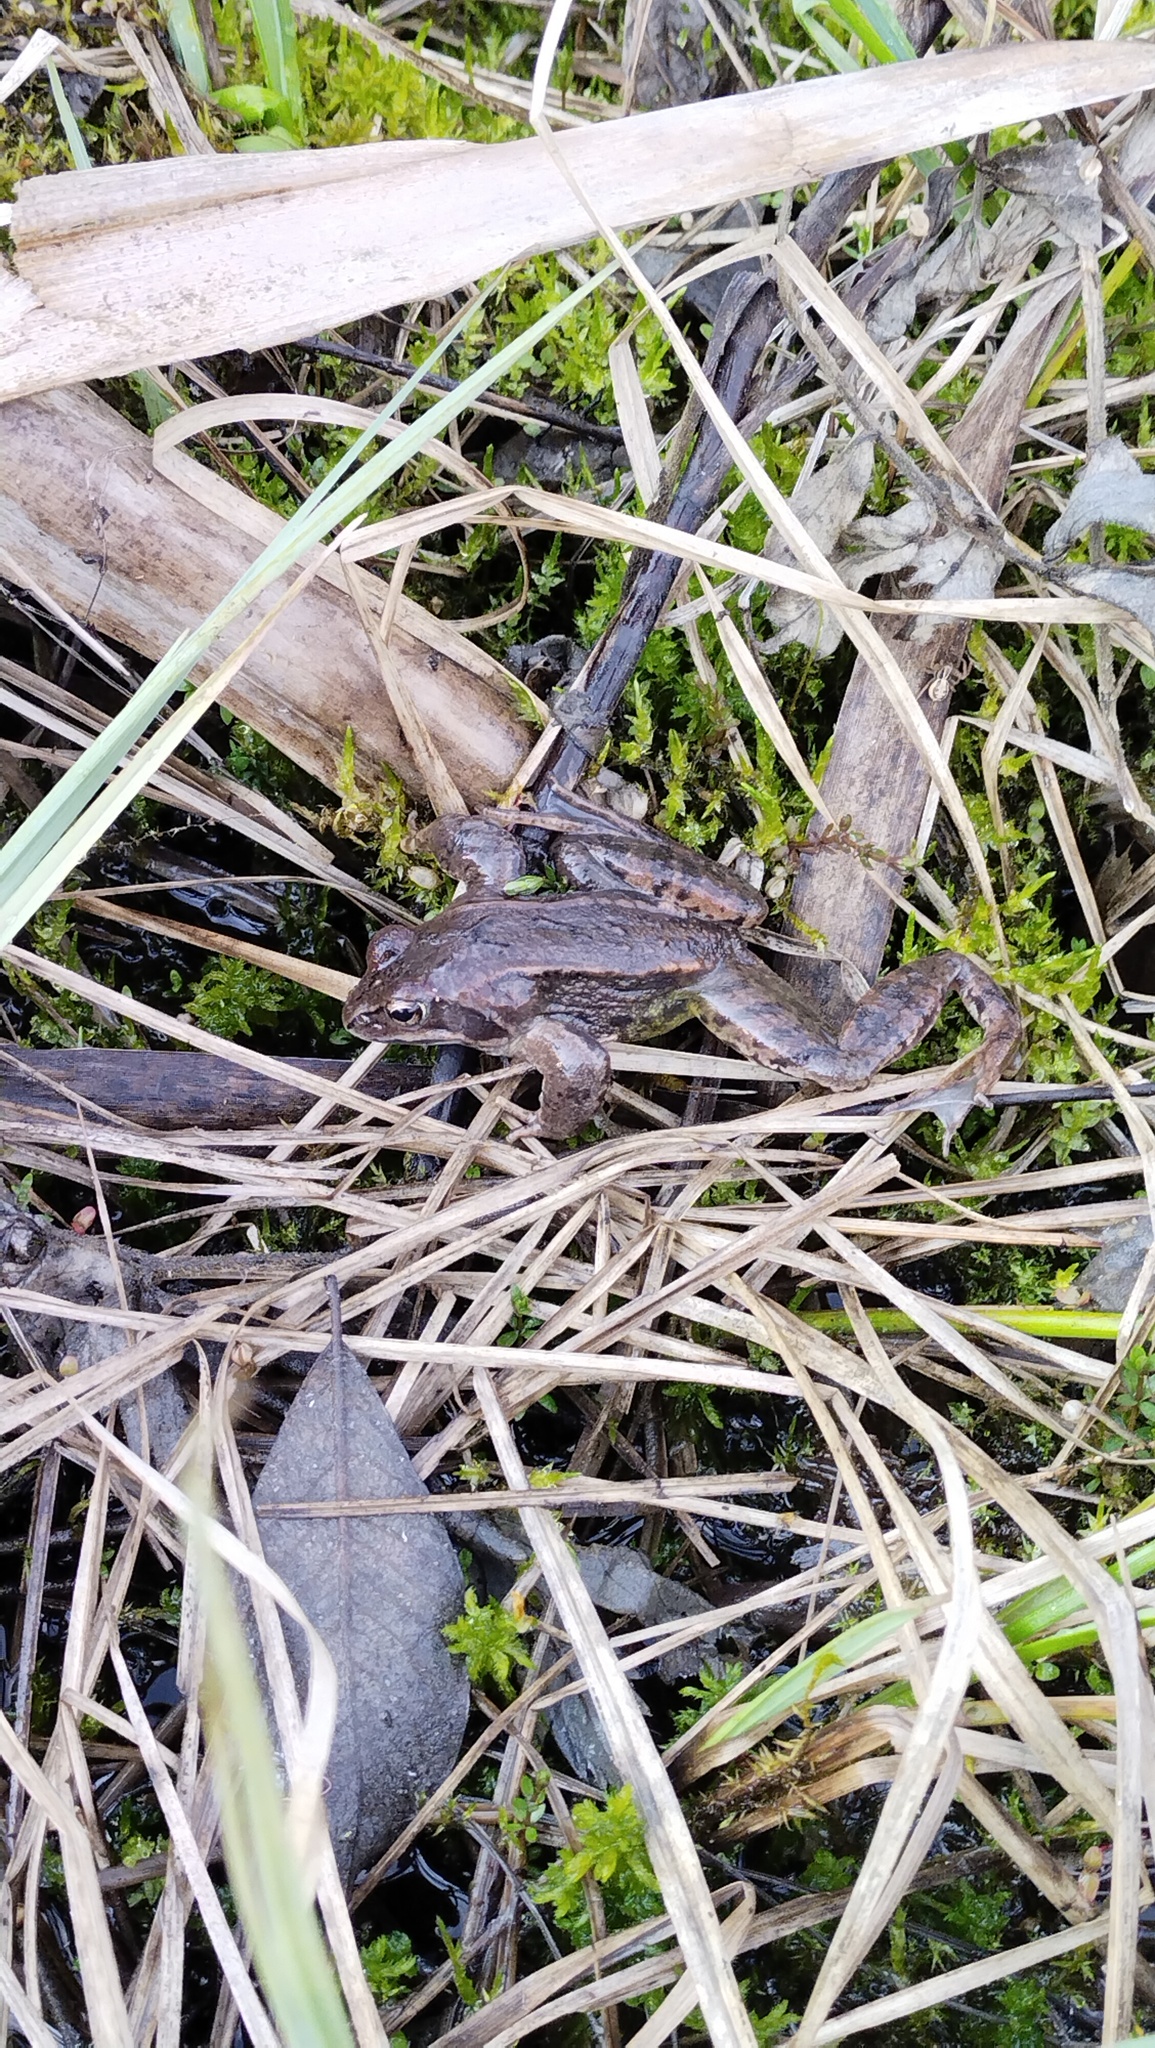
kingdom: Animalia
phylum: Chordata
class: Amphibia
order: Anura
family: Ranidae
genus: Rana
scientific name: Rana arvalis
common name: Moor frog
